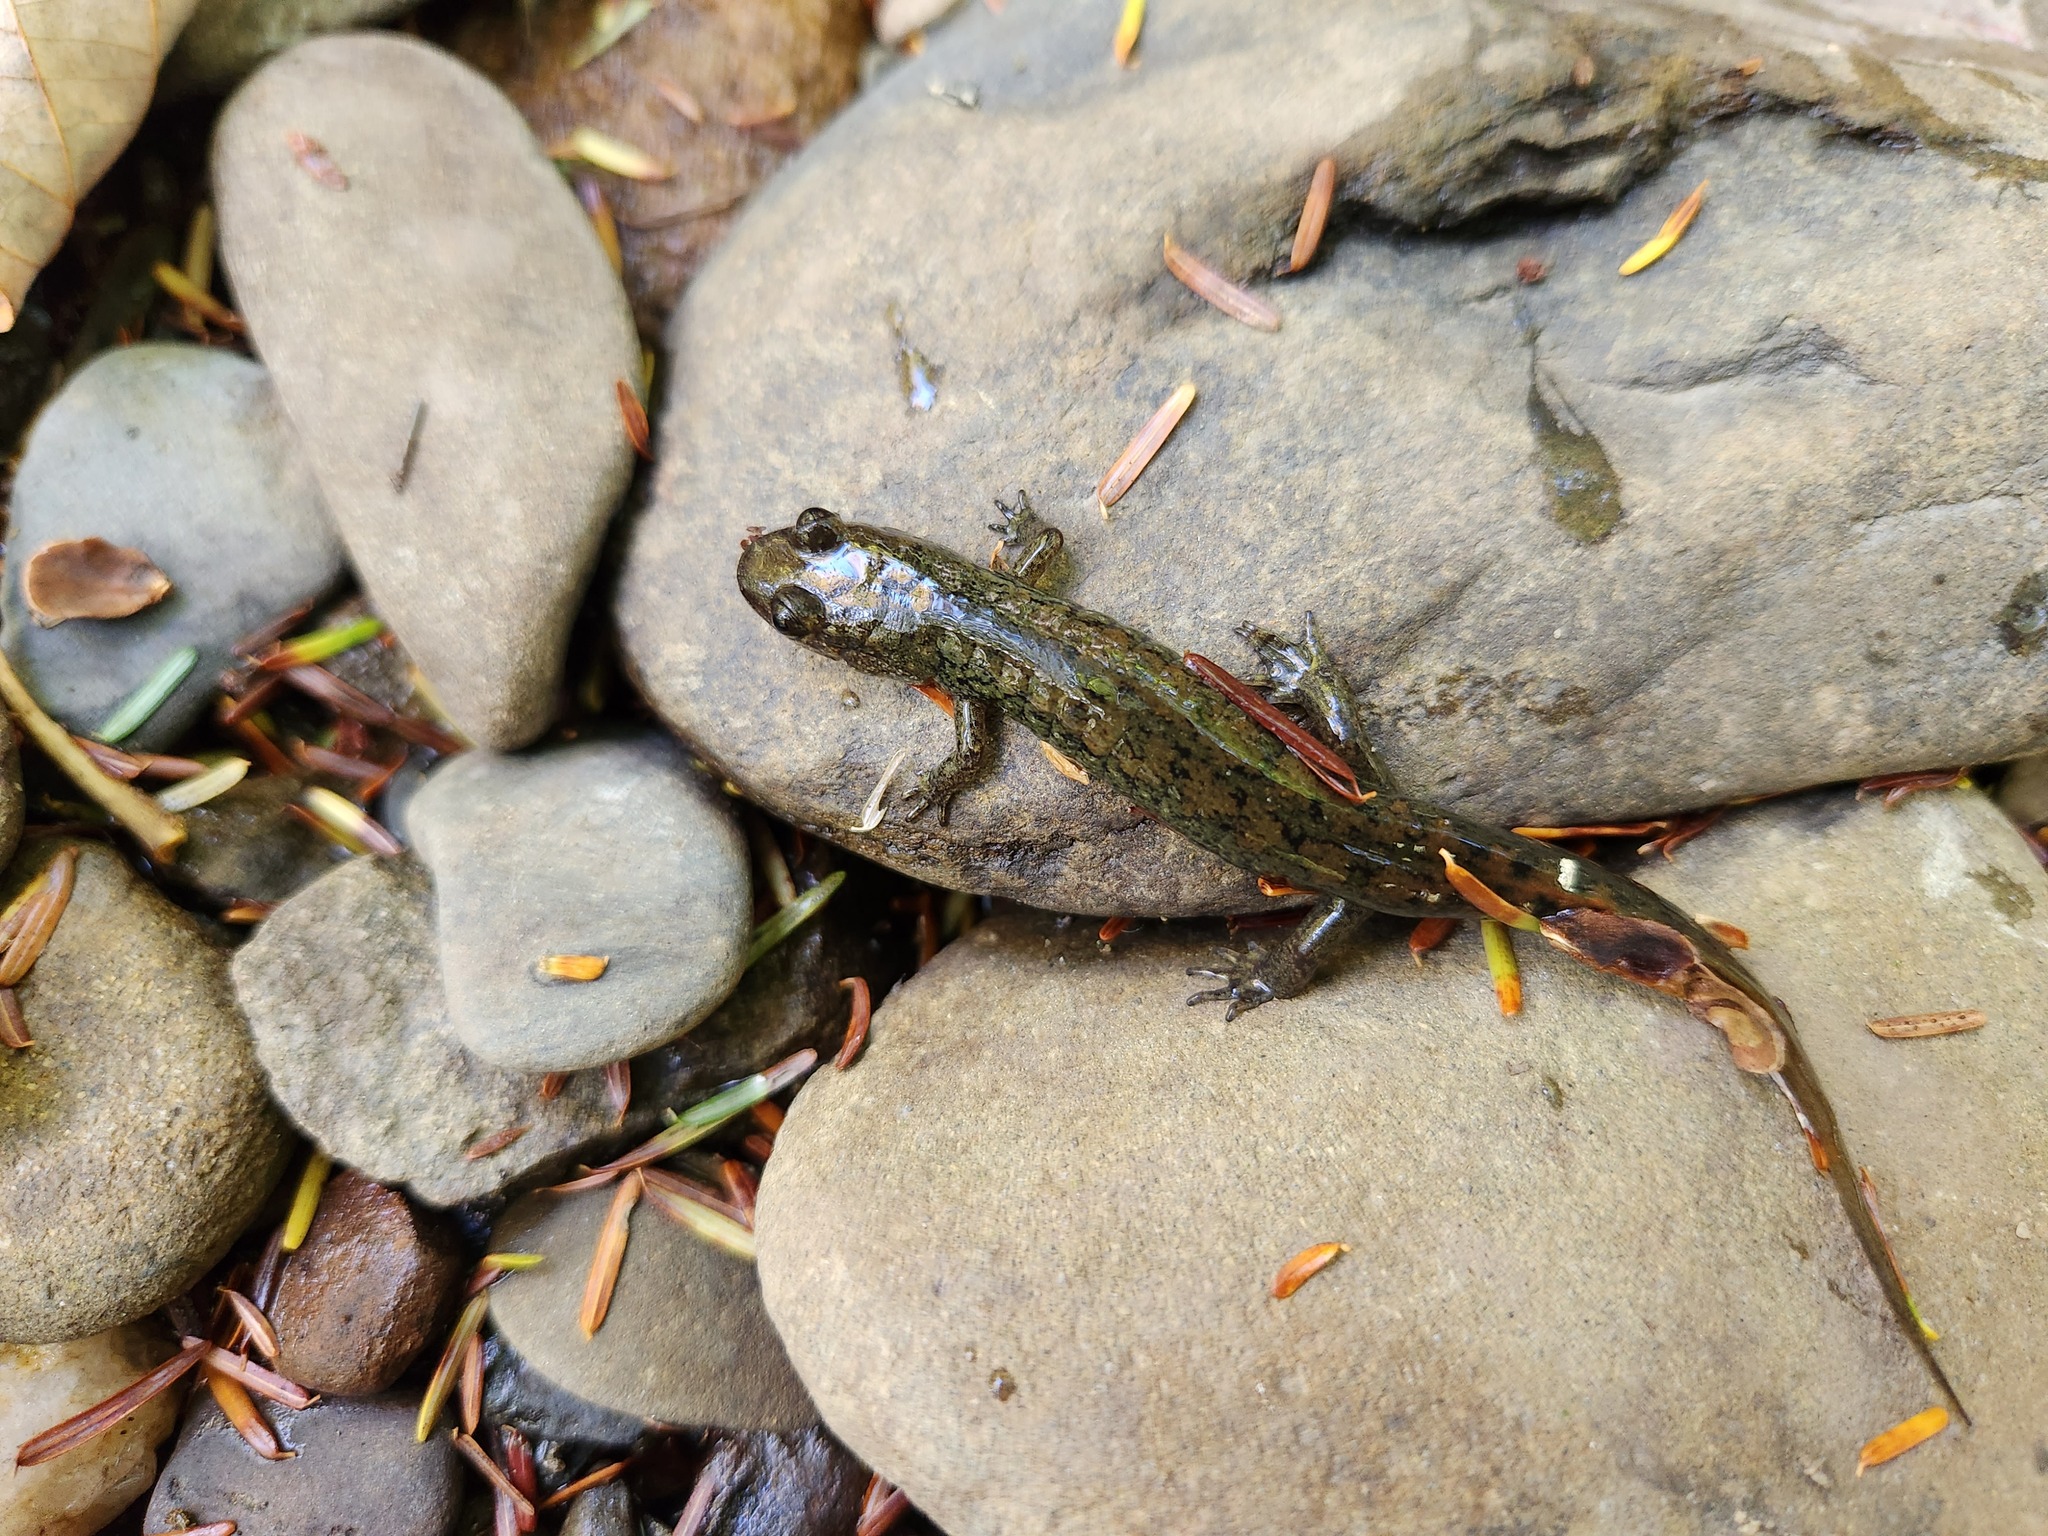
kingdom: Animalia
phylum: Chordata
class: Amphibia
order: Caudata
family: Plethodontidae
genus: Desmognathus
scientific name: Desmognathus
